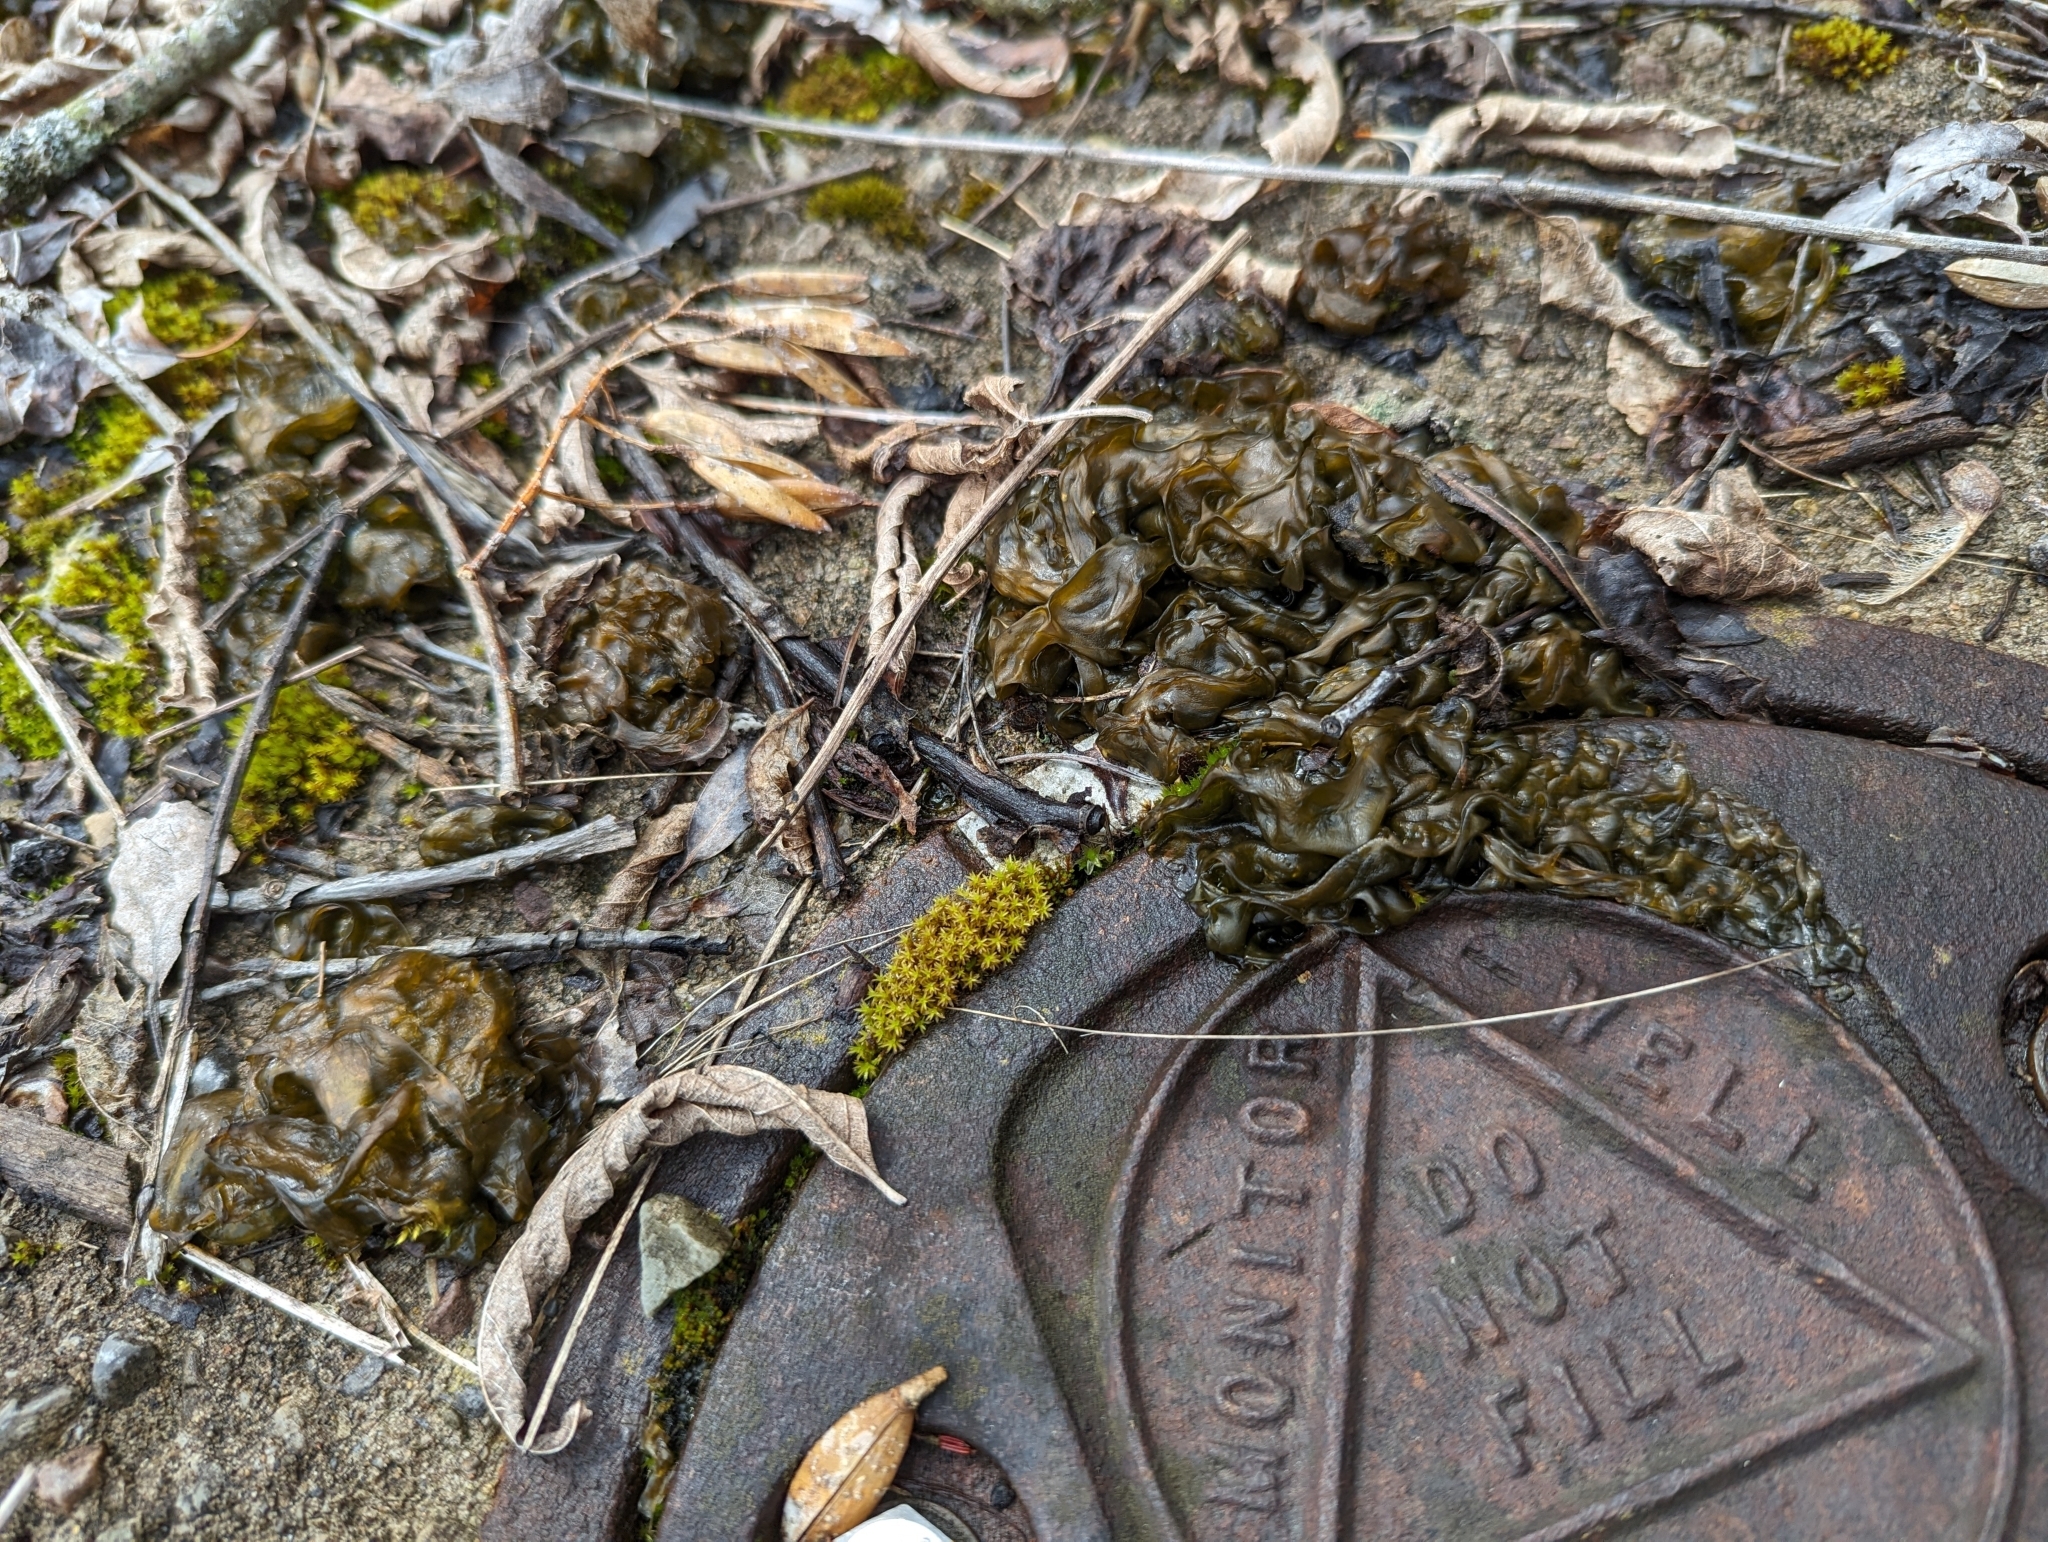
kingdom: Bacteria
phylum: Cyanobacteria
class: Cyanobacteriia
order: Cyanobacteriales
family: Nostocaceae
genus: Nostoc
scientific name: Nostoc commune
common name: Star jelly
